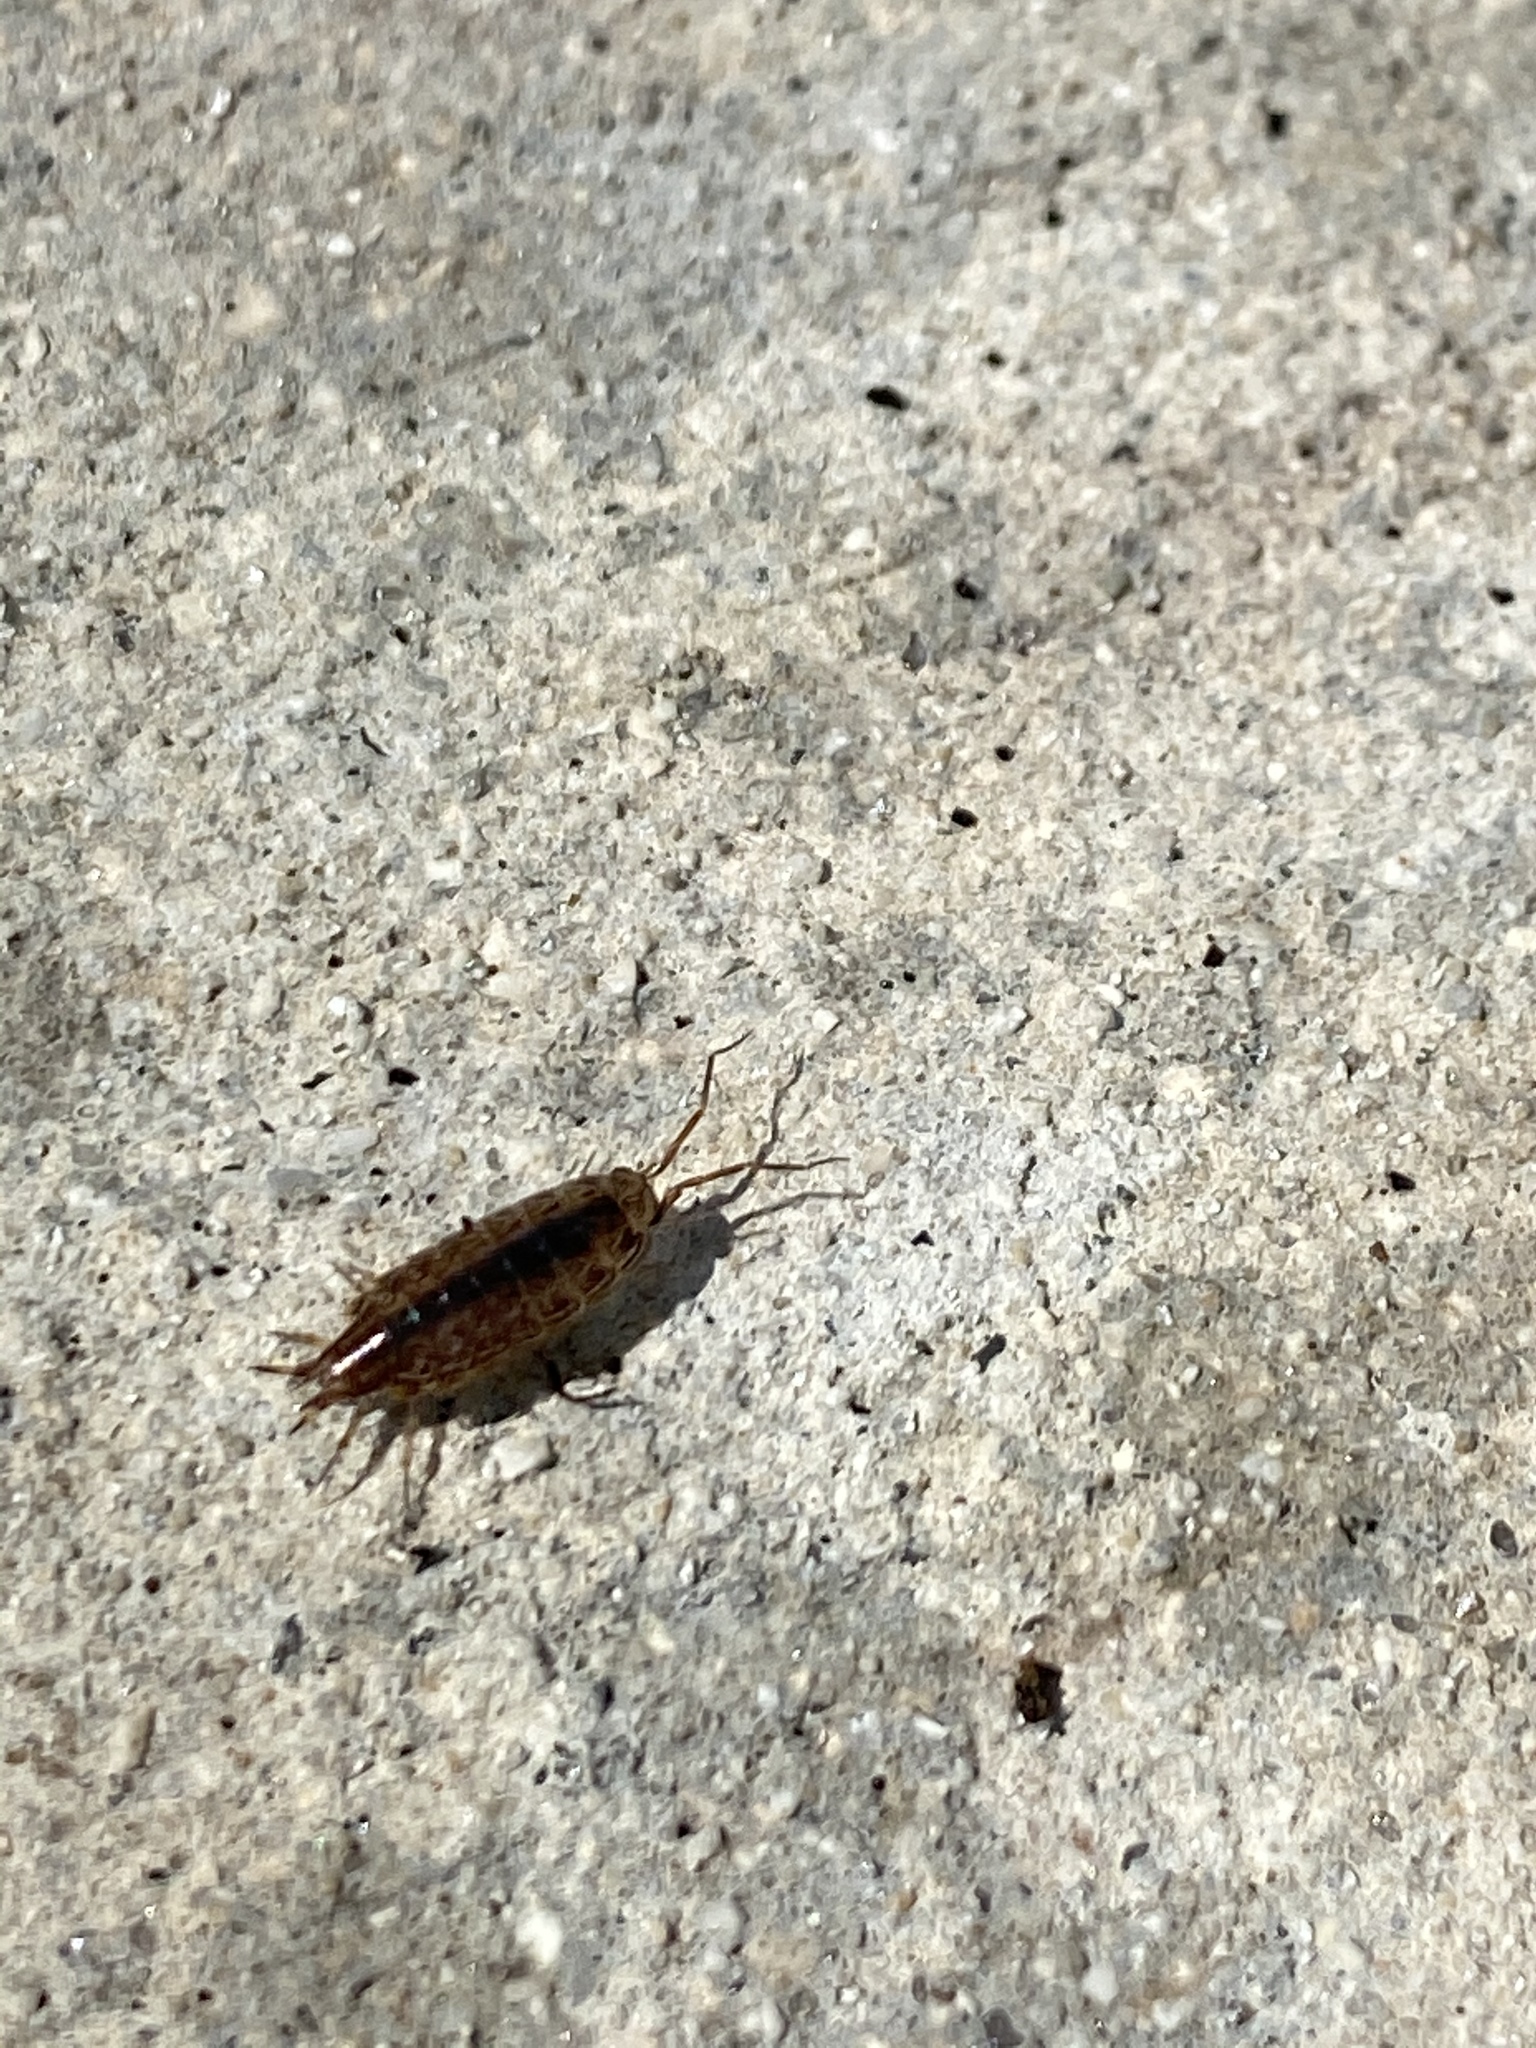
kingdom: Animalia
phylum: Arthropoda
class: Malacostraca
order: Isopoda
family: Philosciidae
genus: Atlantoscia
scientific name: Atlantoscia floridana
